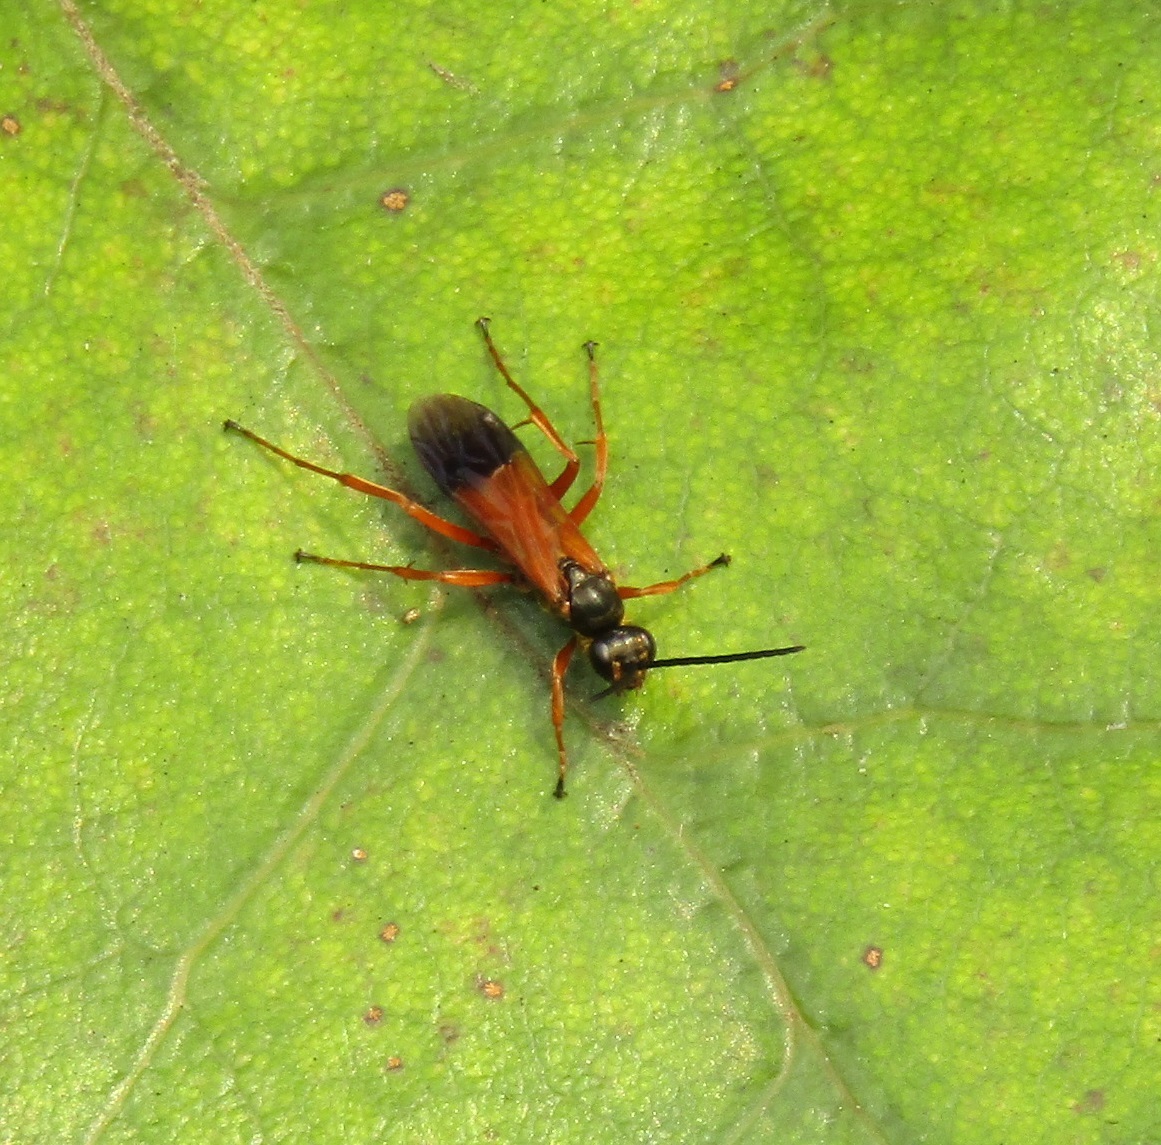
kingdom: Animalia
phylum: Arthropoda
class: Insecta
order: Hymenoptera
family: Pompilidae
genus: Priocnemis
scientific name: Priocnemis conformis
